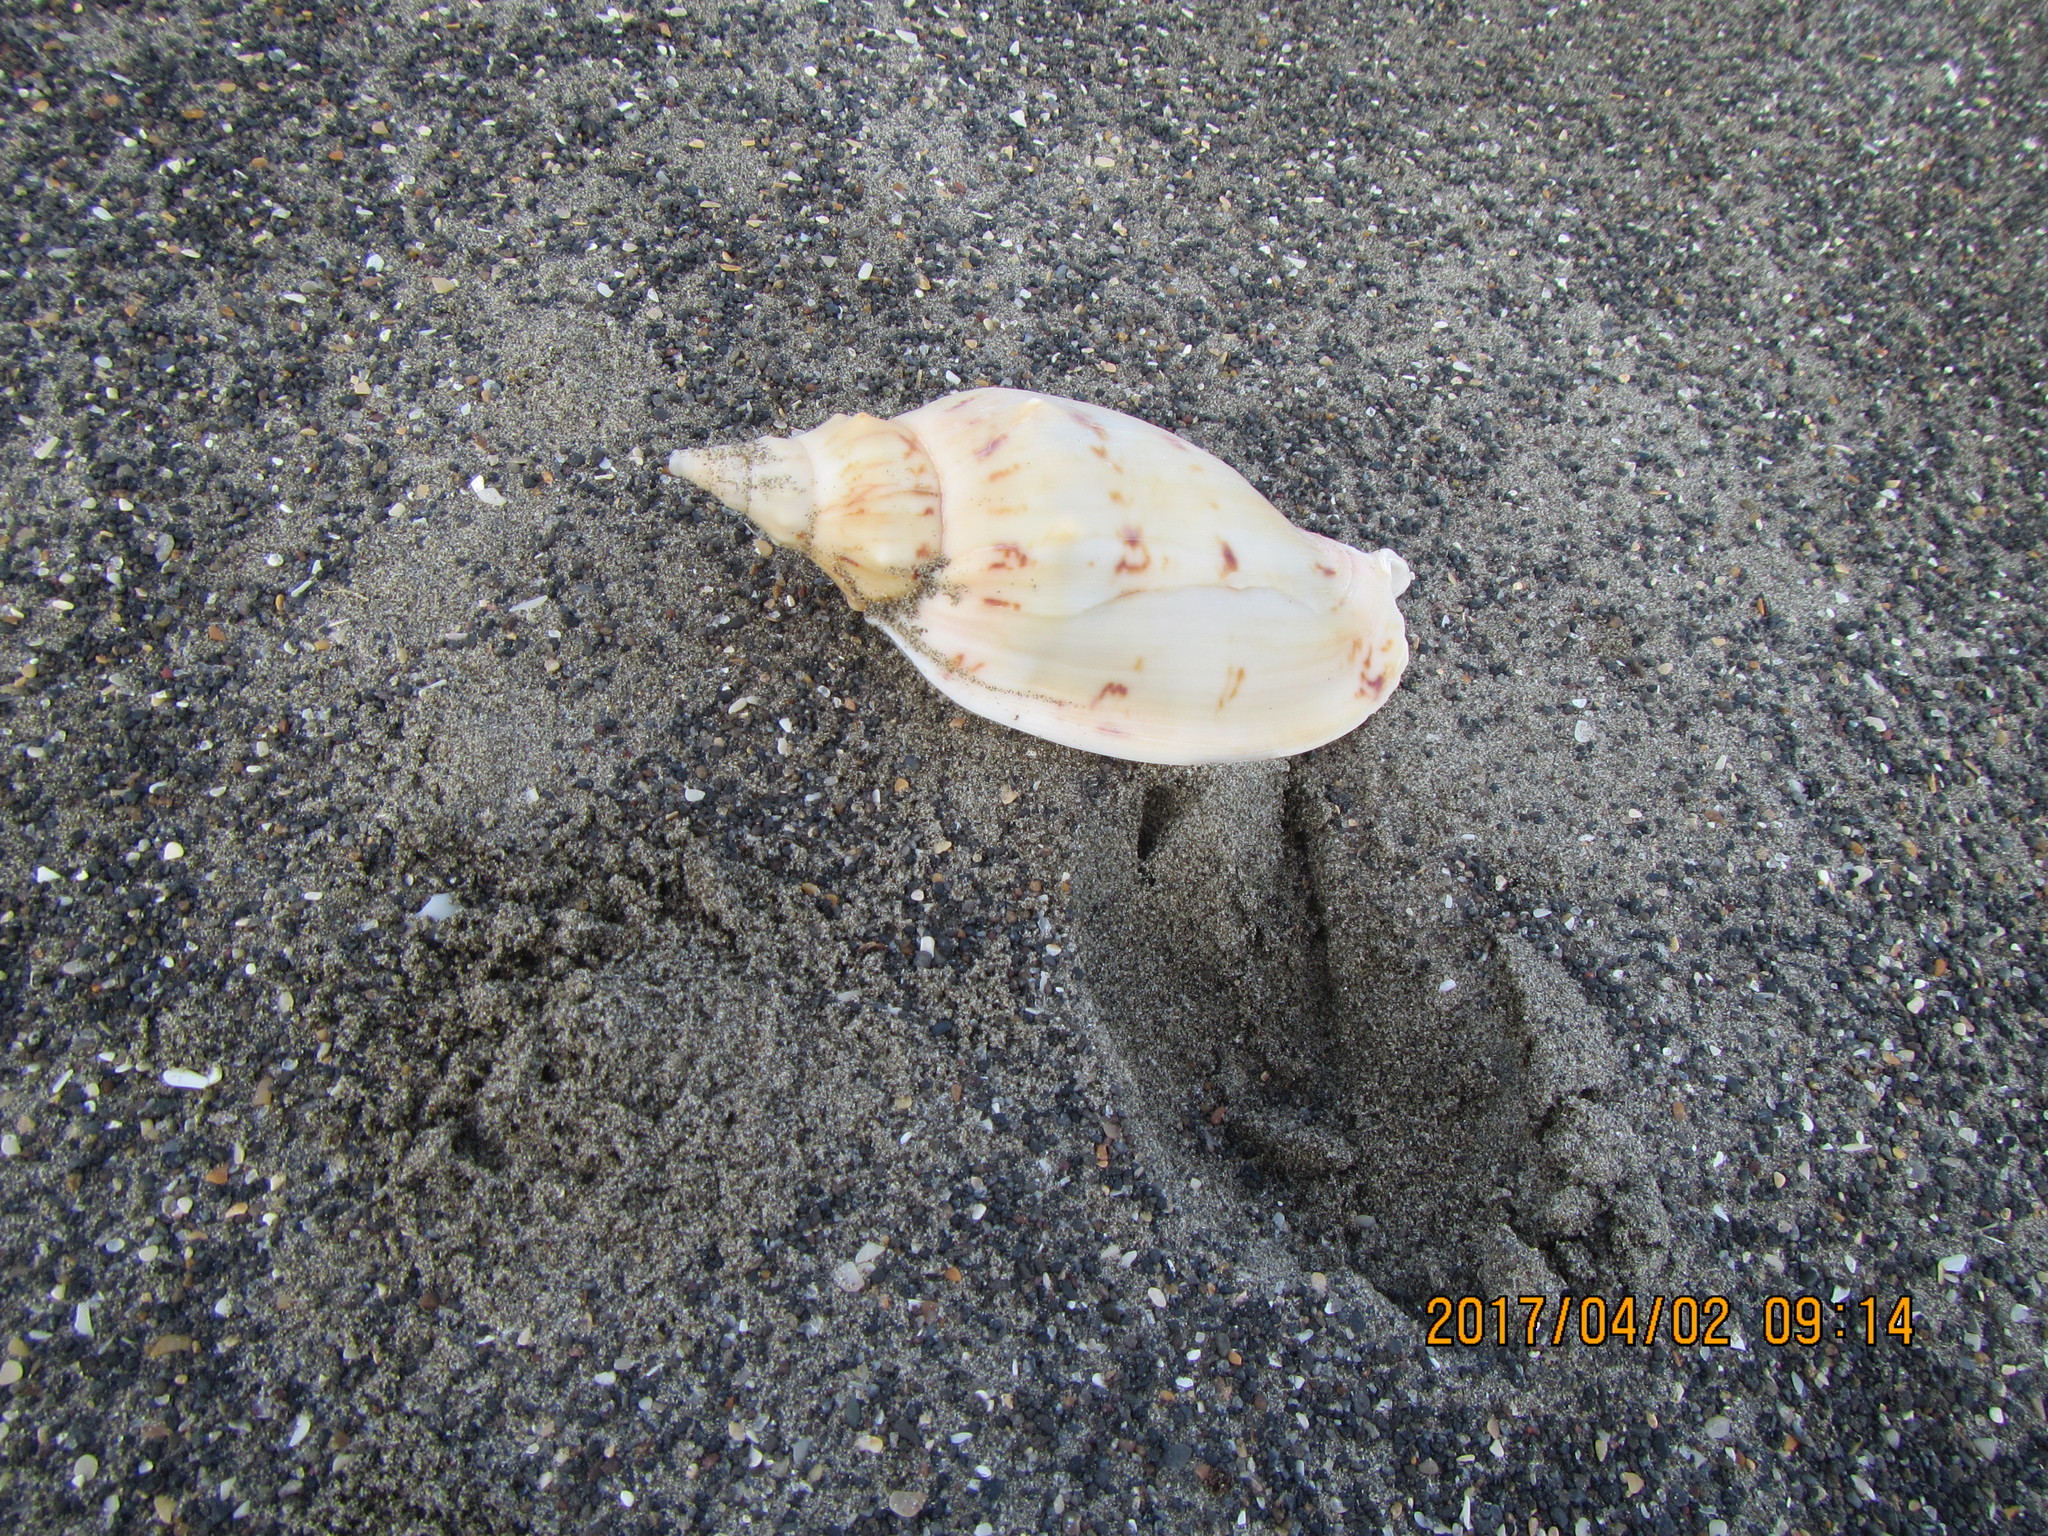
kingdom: Animalia
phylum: Mollusca
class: Gastropoda
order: Neogastropoda
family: Volutidae
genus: Alcithoe
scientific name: Alcithoe arabica
